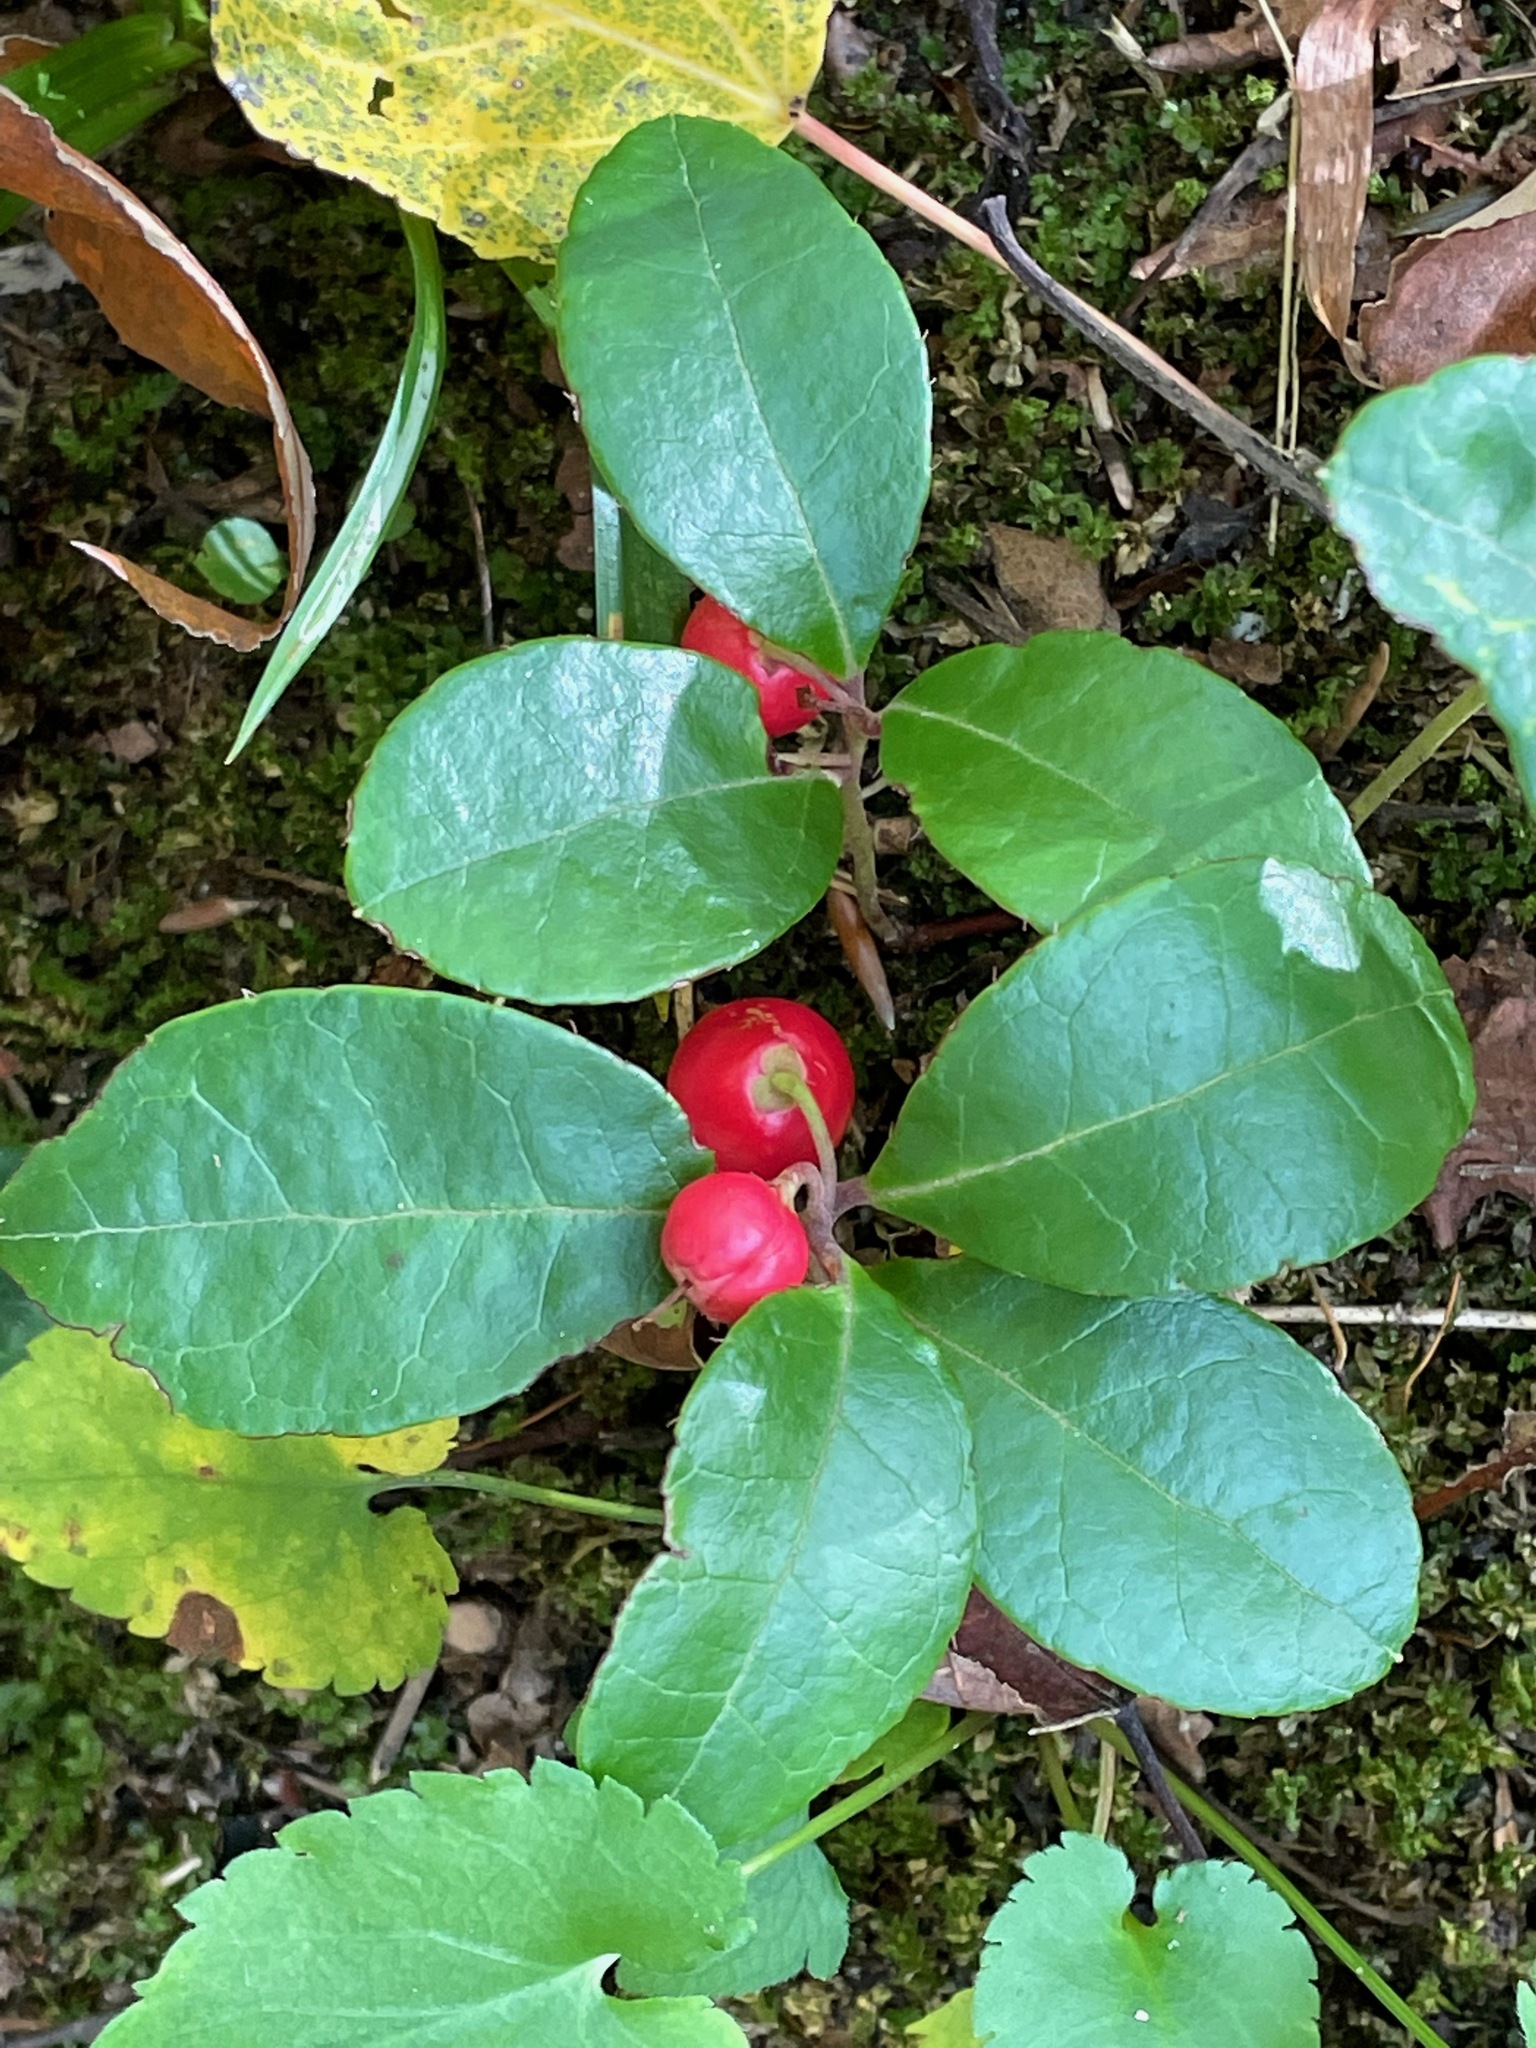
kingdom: Plantae
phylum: Tracheophyta
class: Magnoliopsida
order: Ericales
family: Ericaceae
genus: Gaultheria
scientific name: Gaultheria procumbens
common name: Checkerberry
